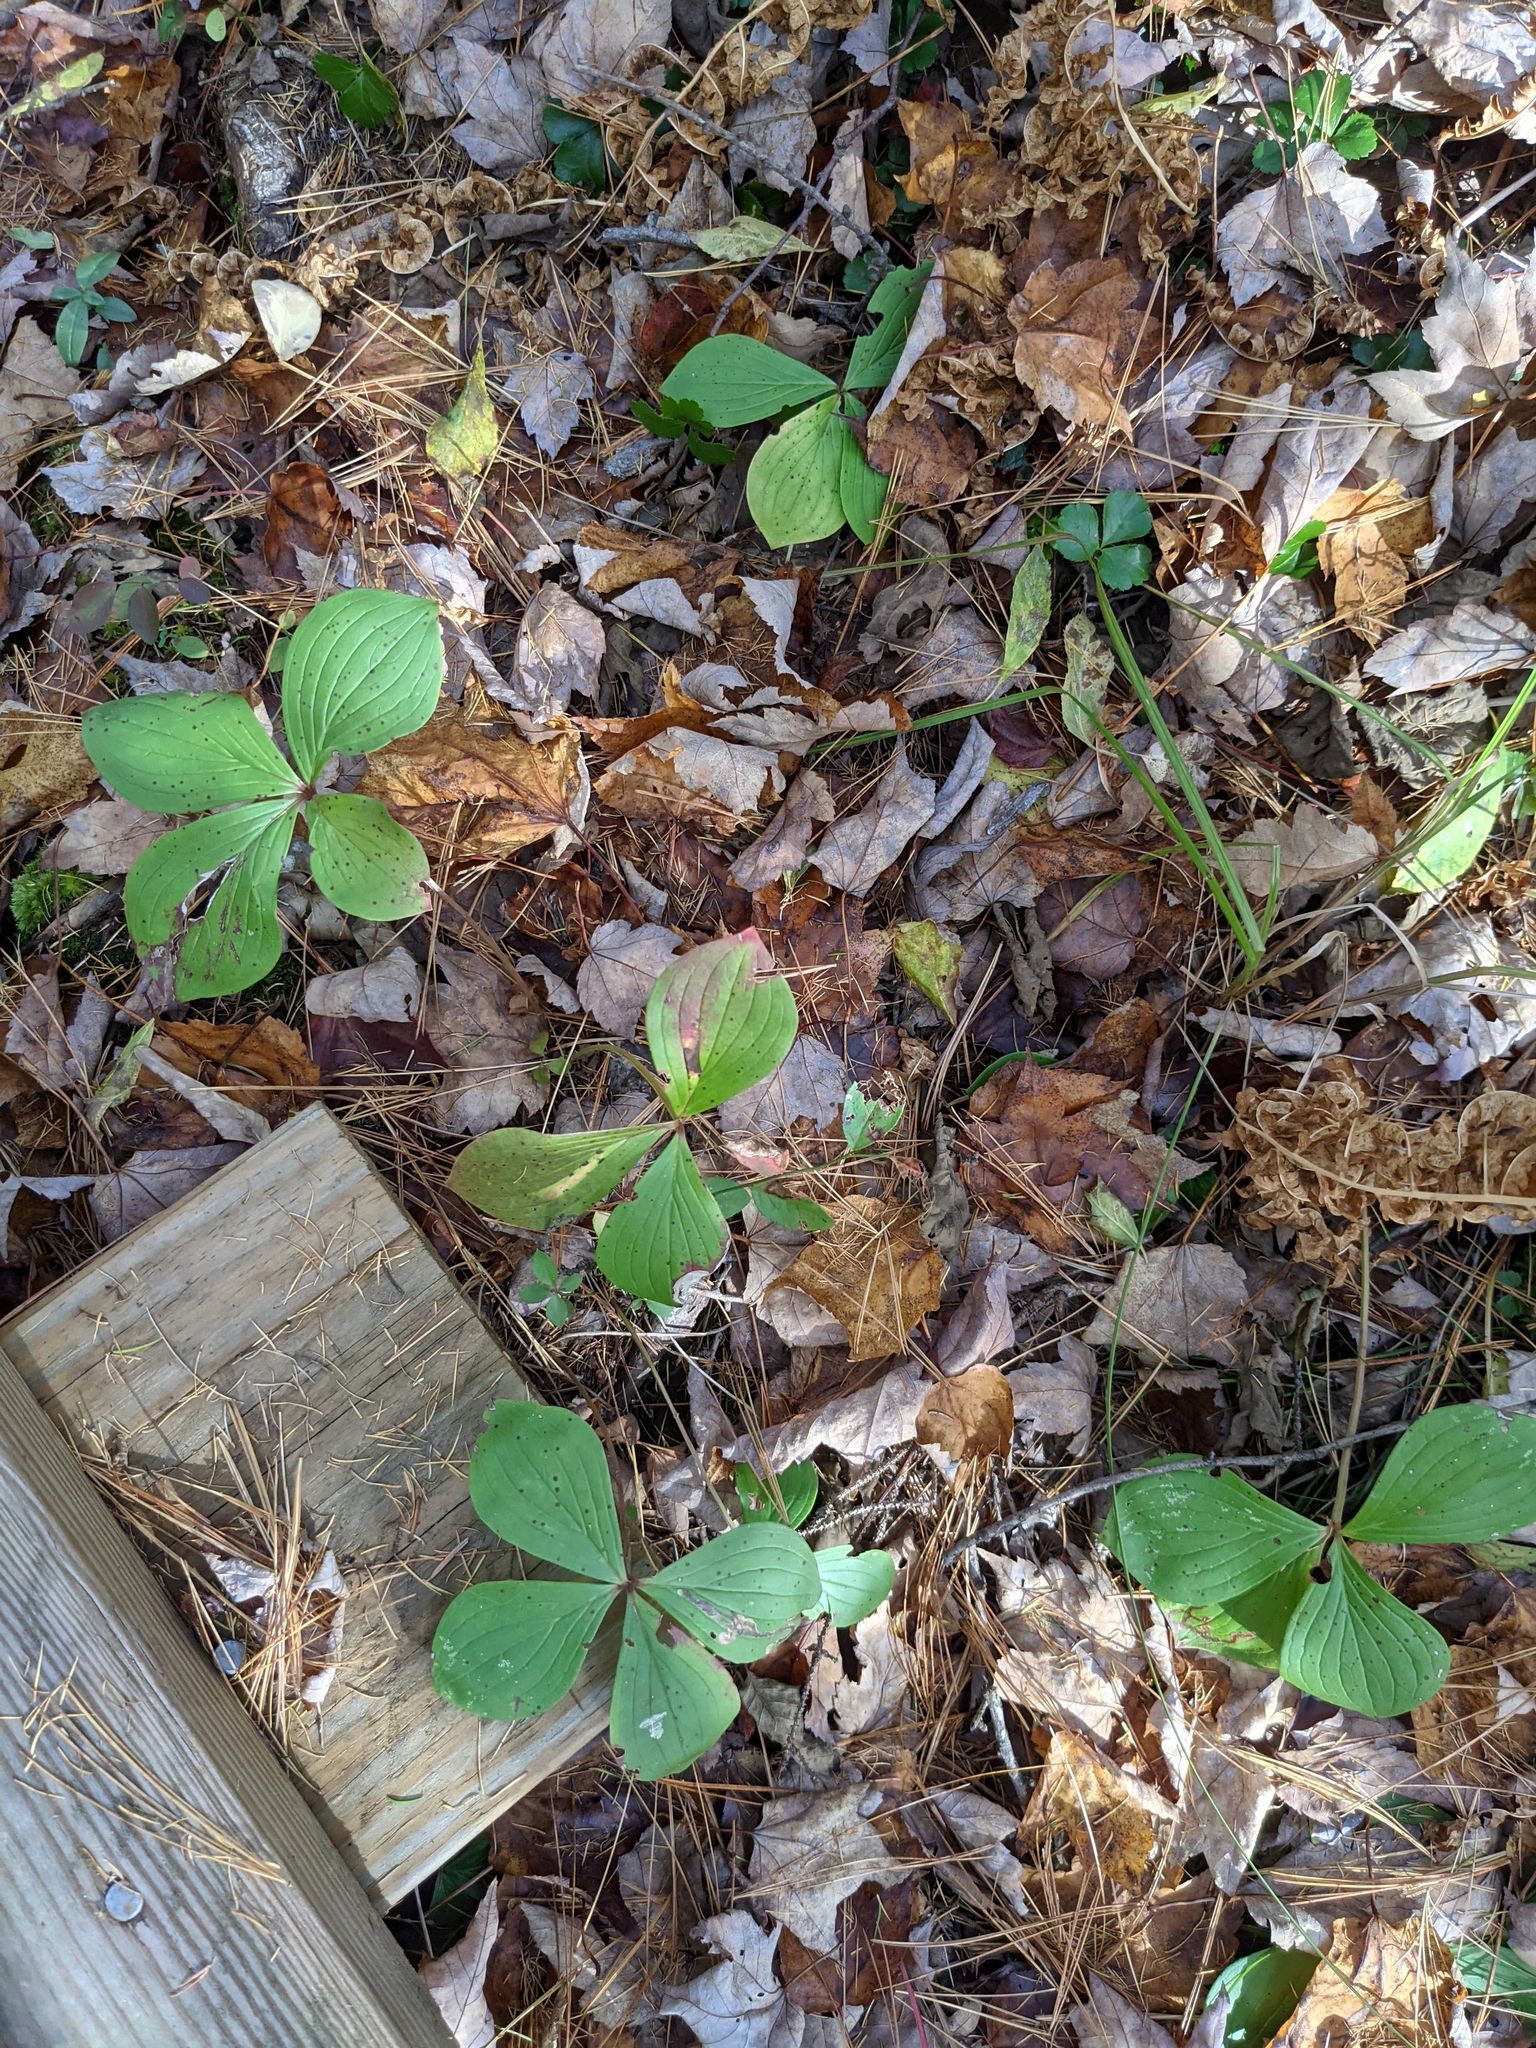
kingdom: Plantae
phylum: Tracheophyta
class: Magnoliopsida
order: Cornales
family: Cornaceae
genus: Cornus
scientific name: Cornus canadensis
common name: Creeping dogwood
